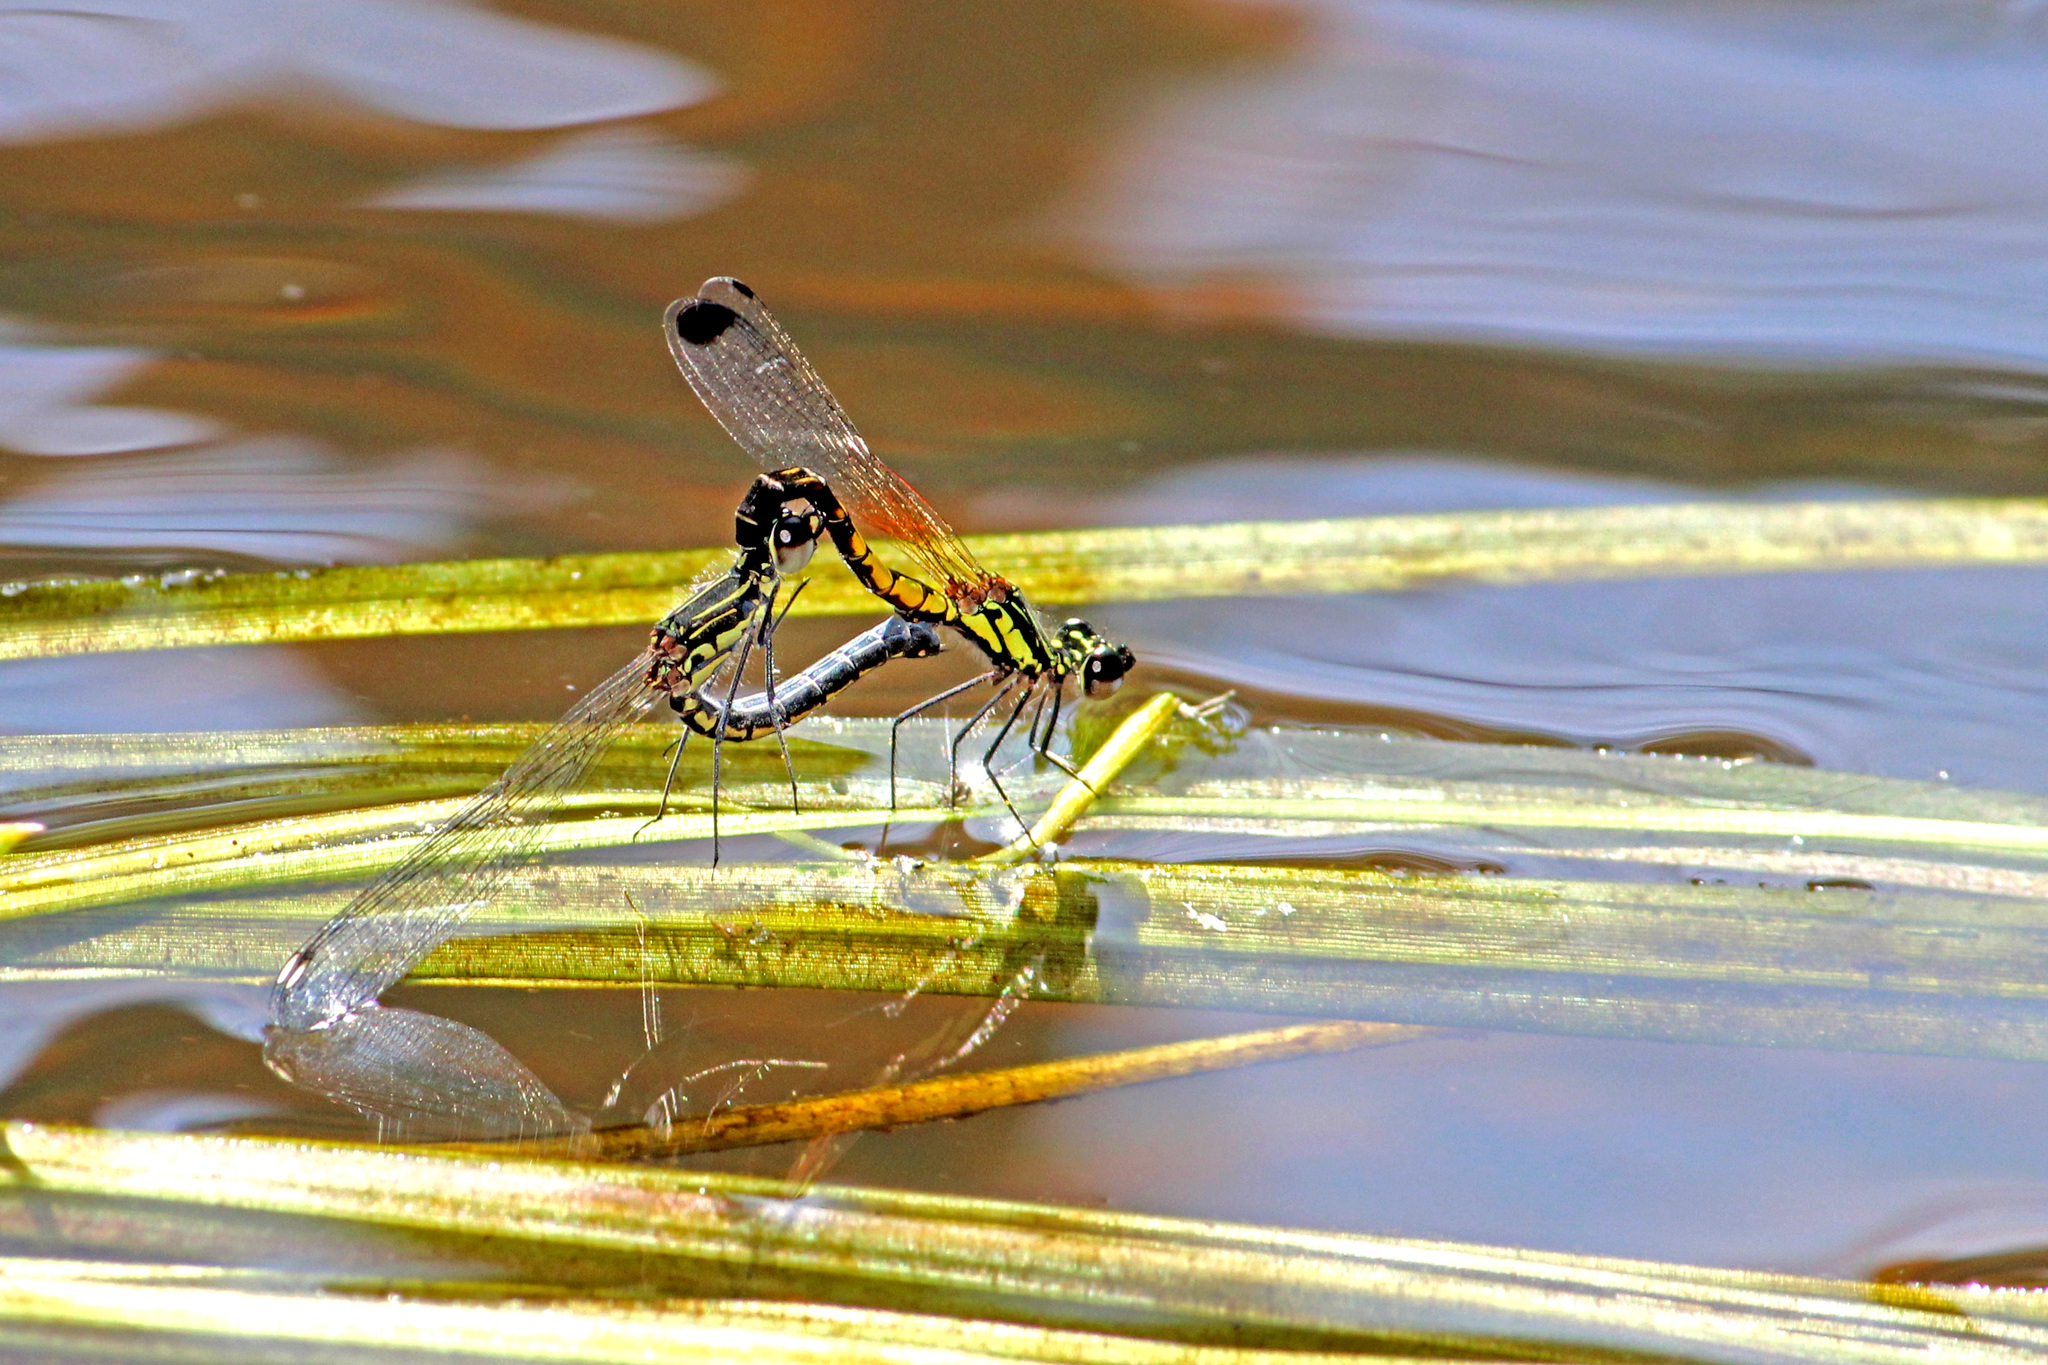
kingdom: Animalia
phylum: Arthropoda
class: Insecta
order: Odonata
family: Chlorocyphidae
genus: Libellago
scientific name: Libellago indica
